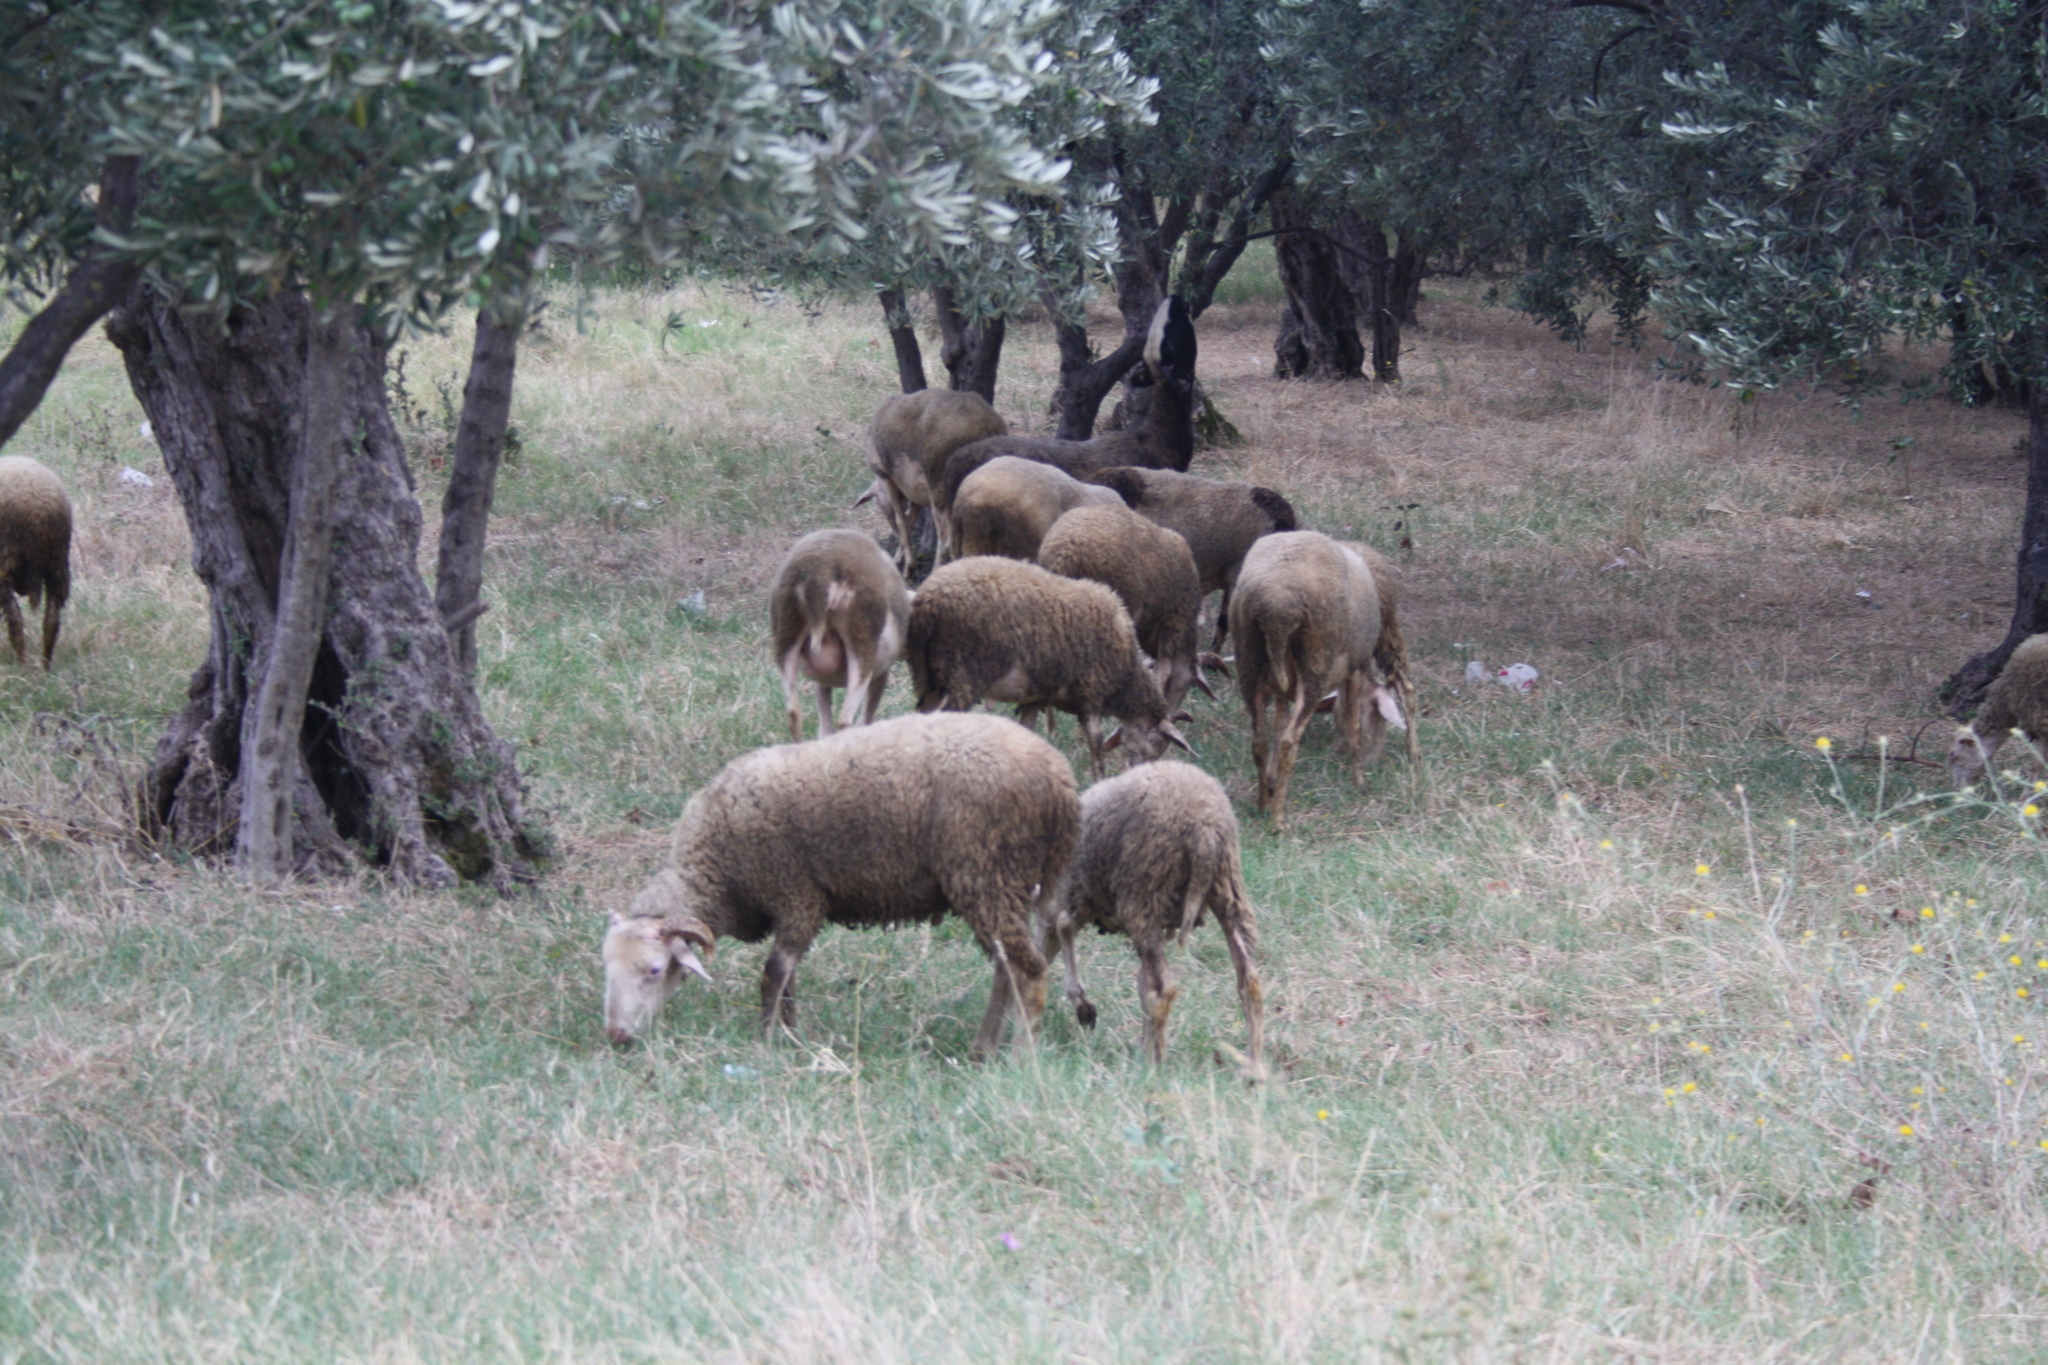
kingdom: Animalia
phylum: Chordata
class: Mammalia
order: Artiodactyla
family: Bovidae
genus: Ovis
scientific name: Ovis aries
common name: Domestic sheep
